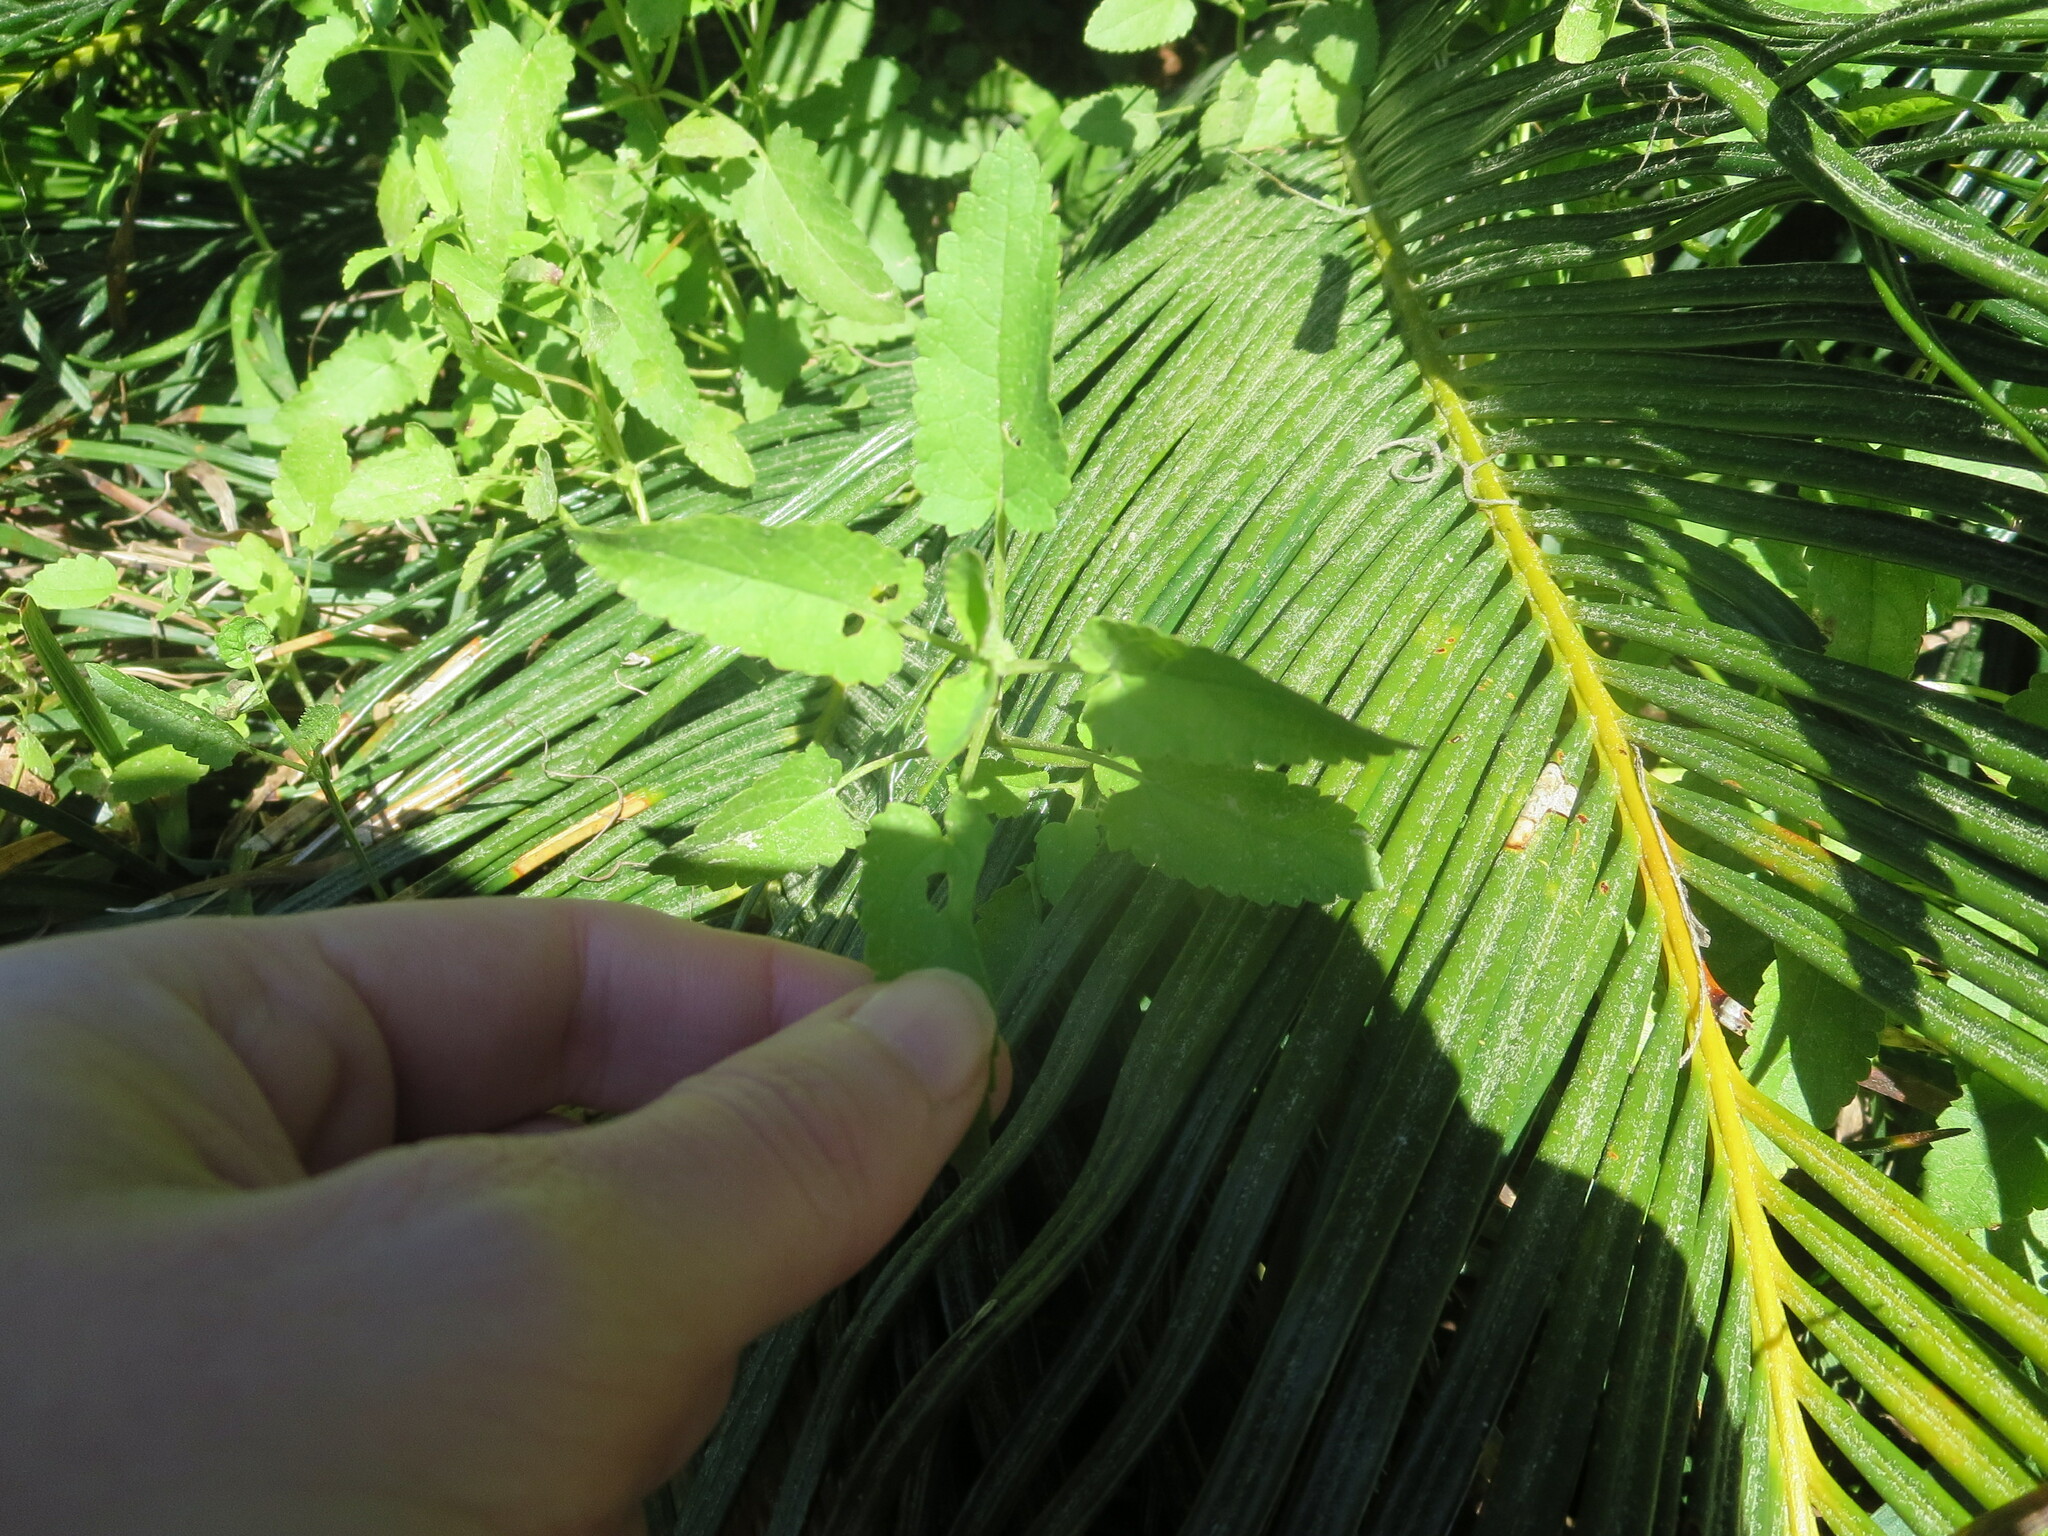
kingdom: Plantae
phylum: Tracheophyta
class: Magnoliopsida
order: Lamiales
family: Lamiaceae
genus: Stachys
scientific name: Stachys floridana
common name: Florida betony
